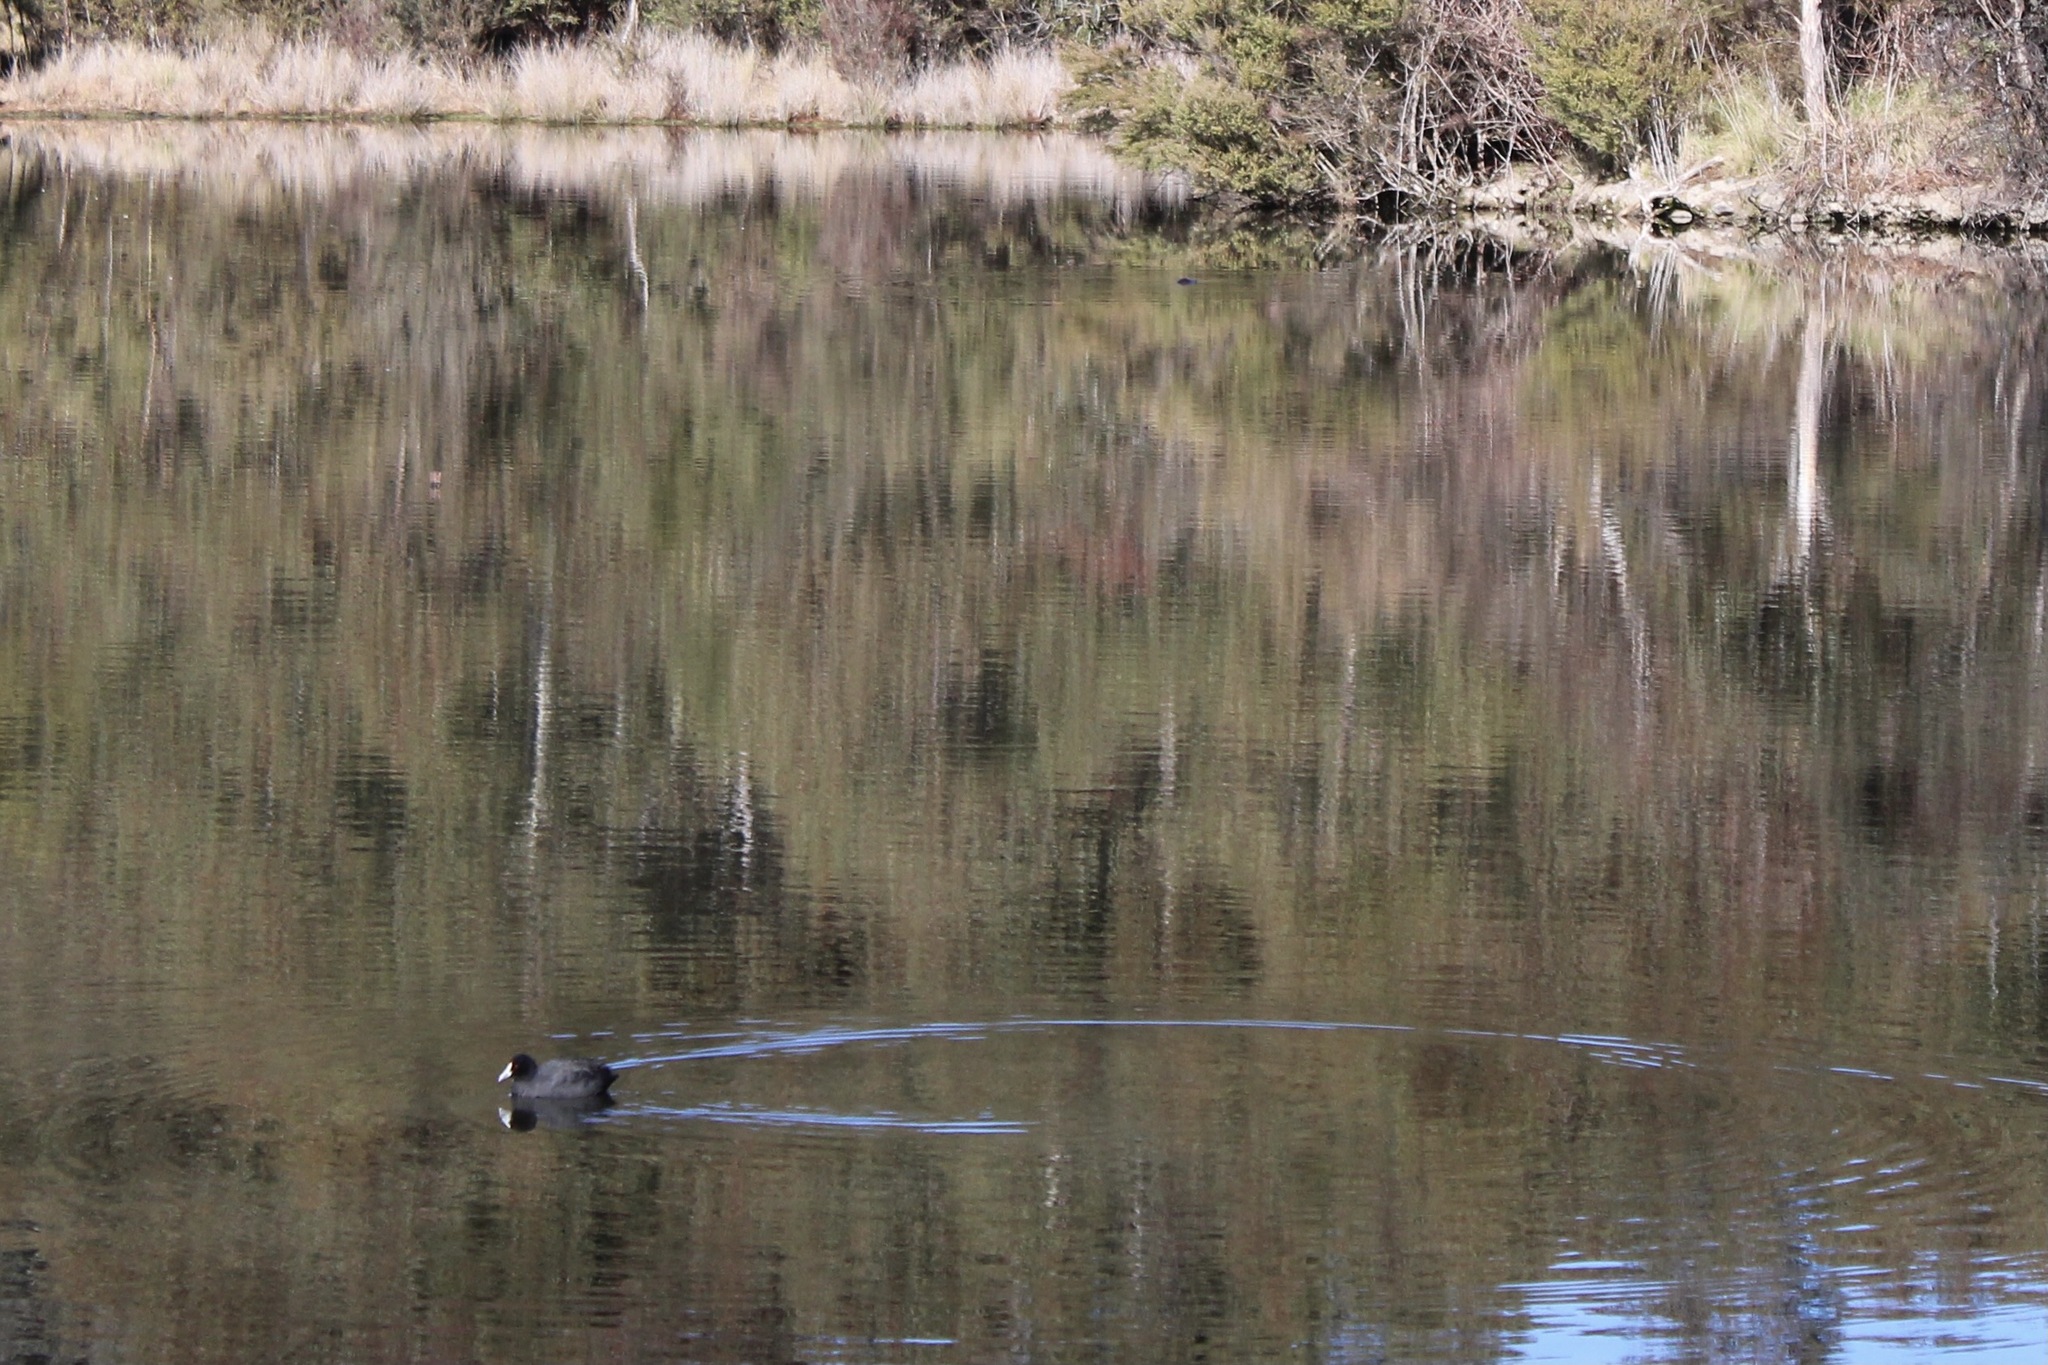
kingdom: Animalia
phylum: Chordata
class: Aves
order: Gruiformes
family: Rallidae
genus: Fulica
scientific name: Fulica atra
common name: Eurasian coot
